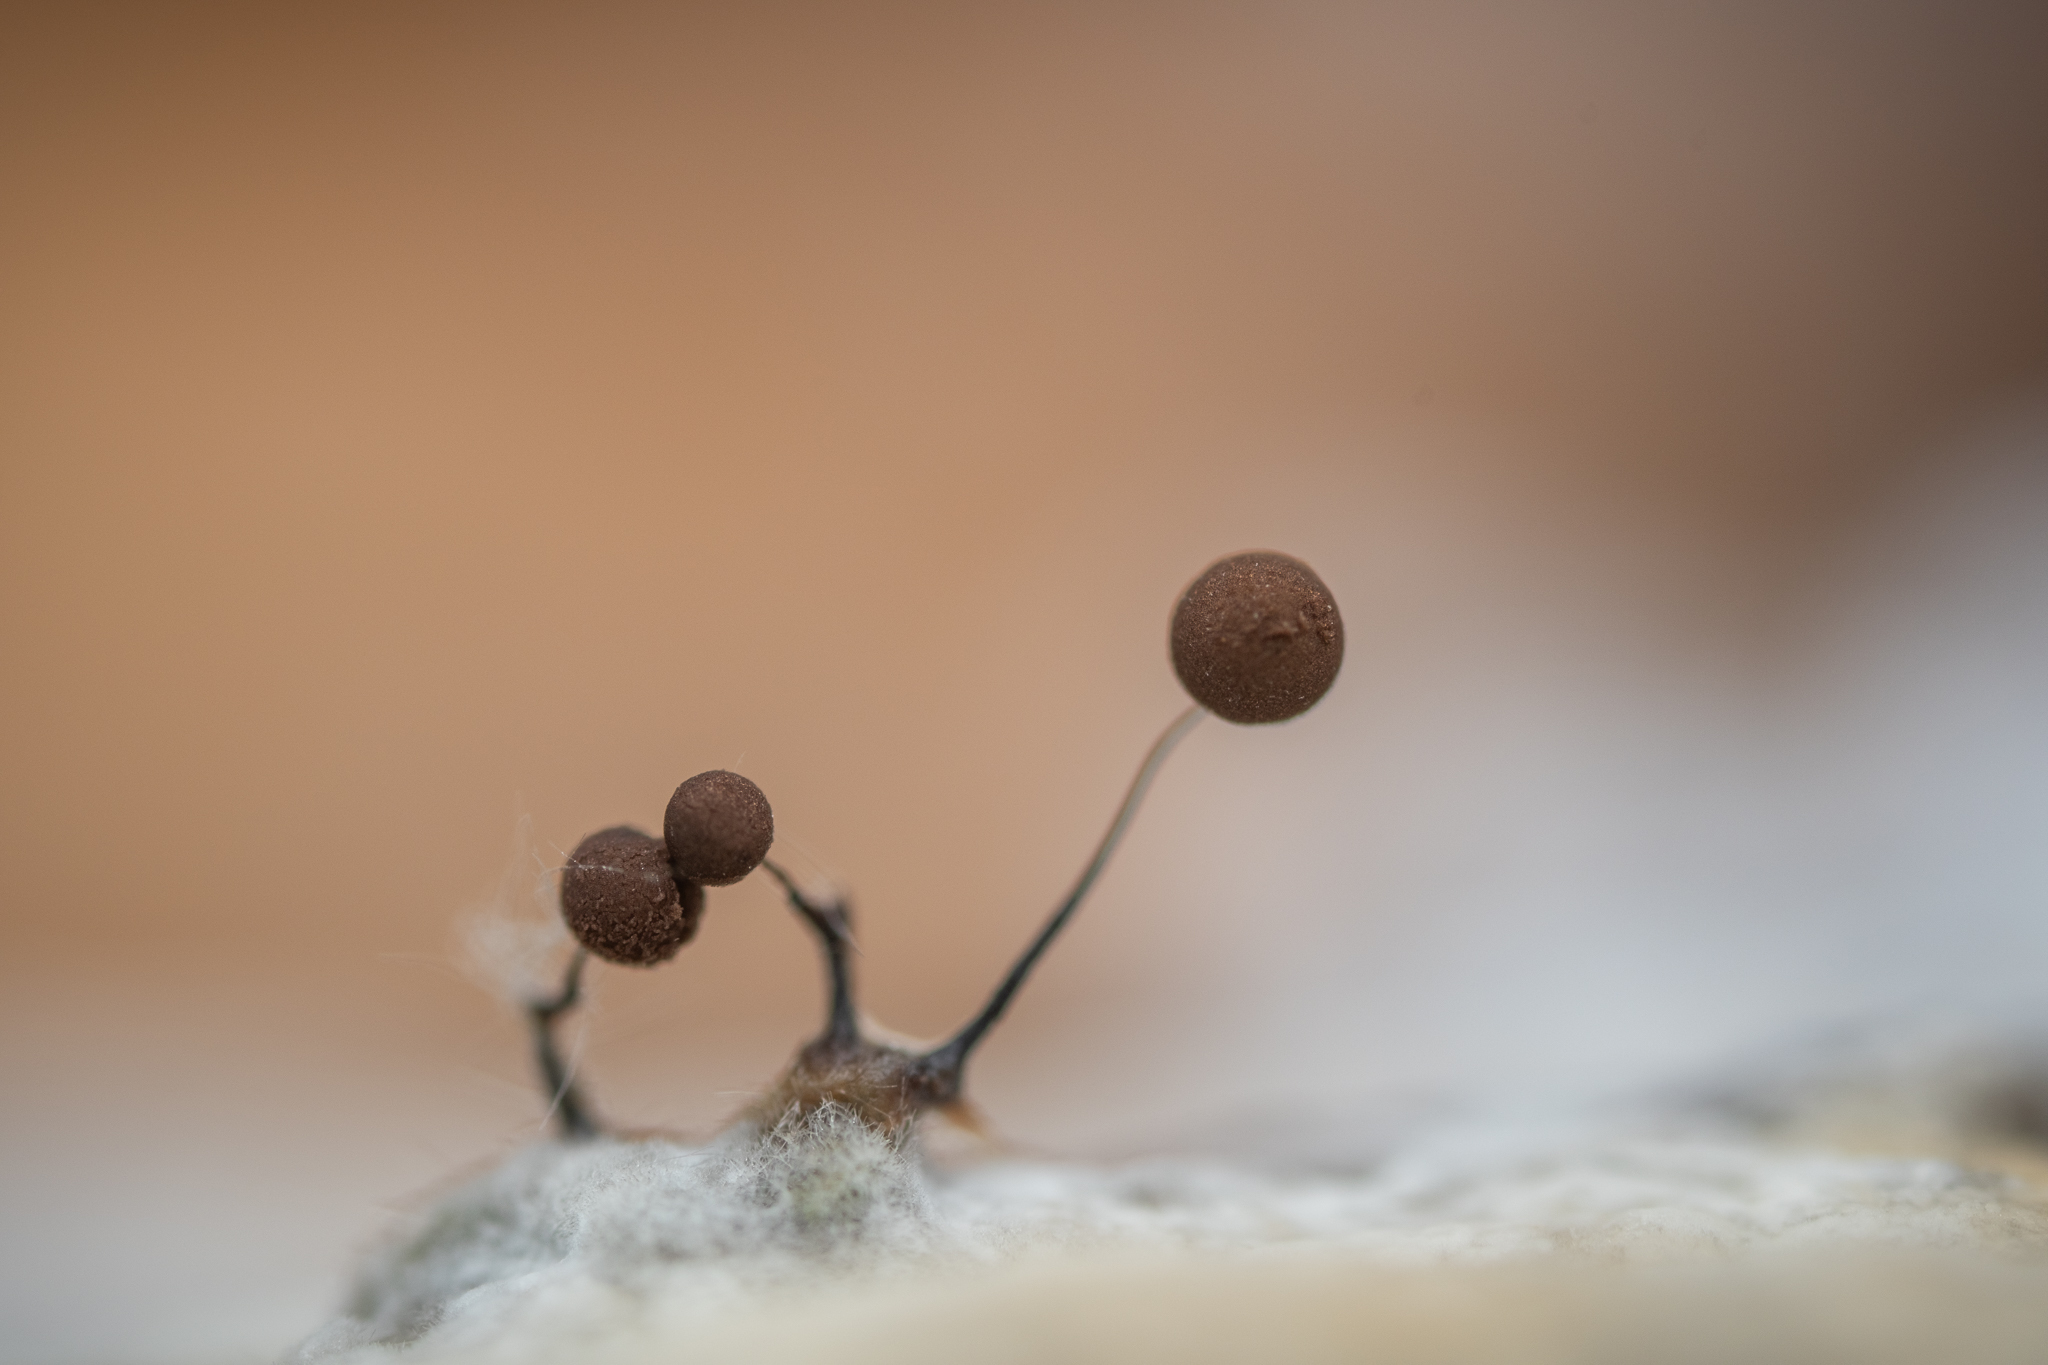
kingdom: Protozoa
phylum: Mycetozoa
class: Myxomycetes
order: Stemonitidales
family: Stemonitidaceae
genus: Comatricha
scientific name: Comatricha nigra
